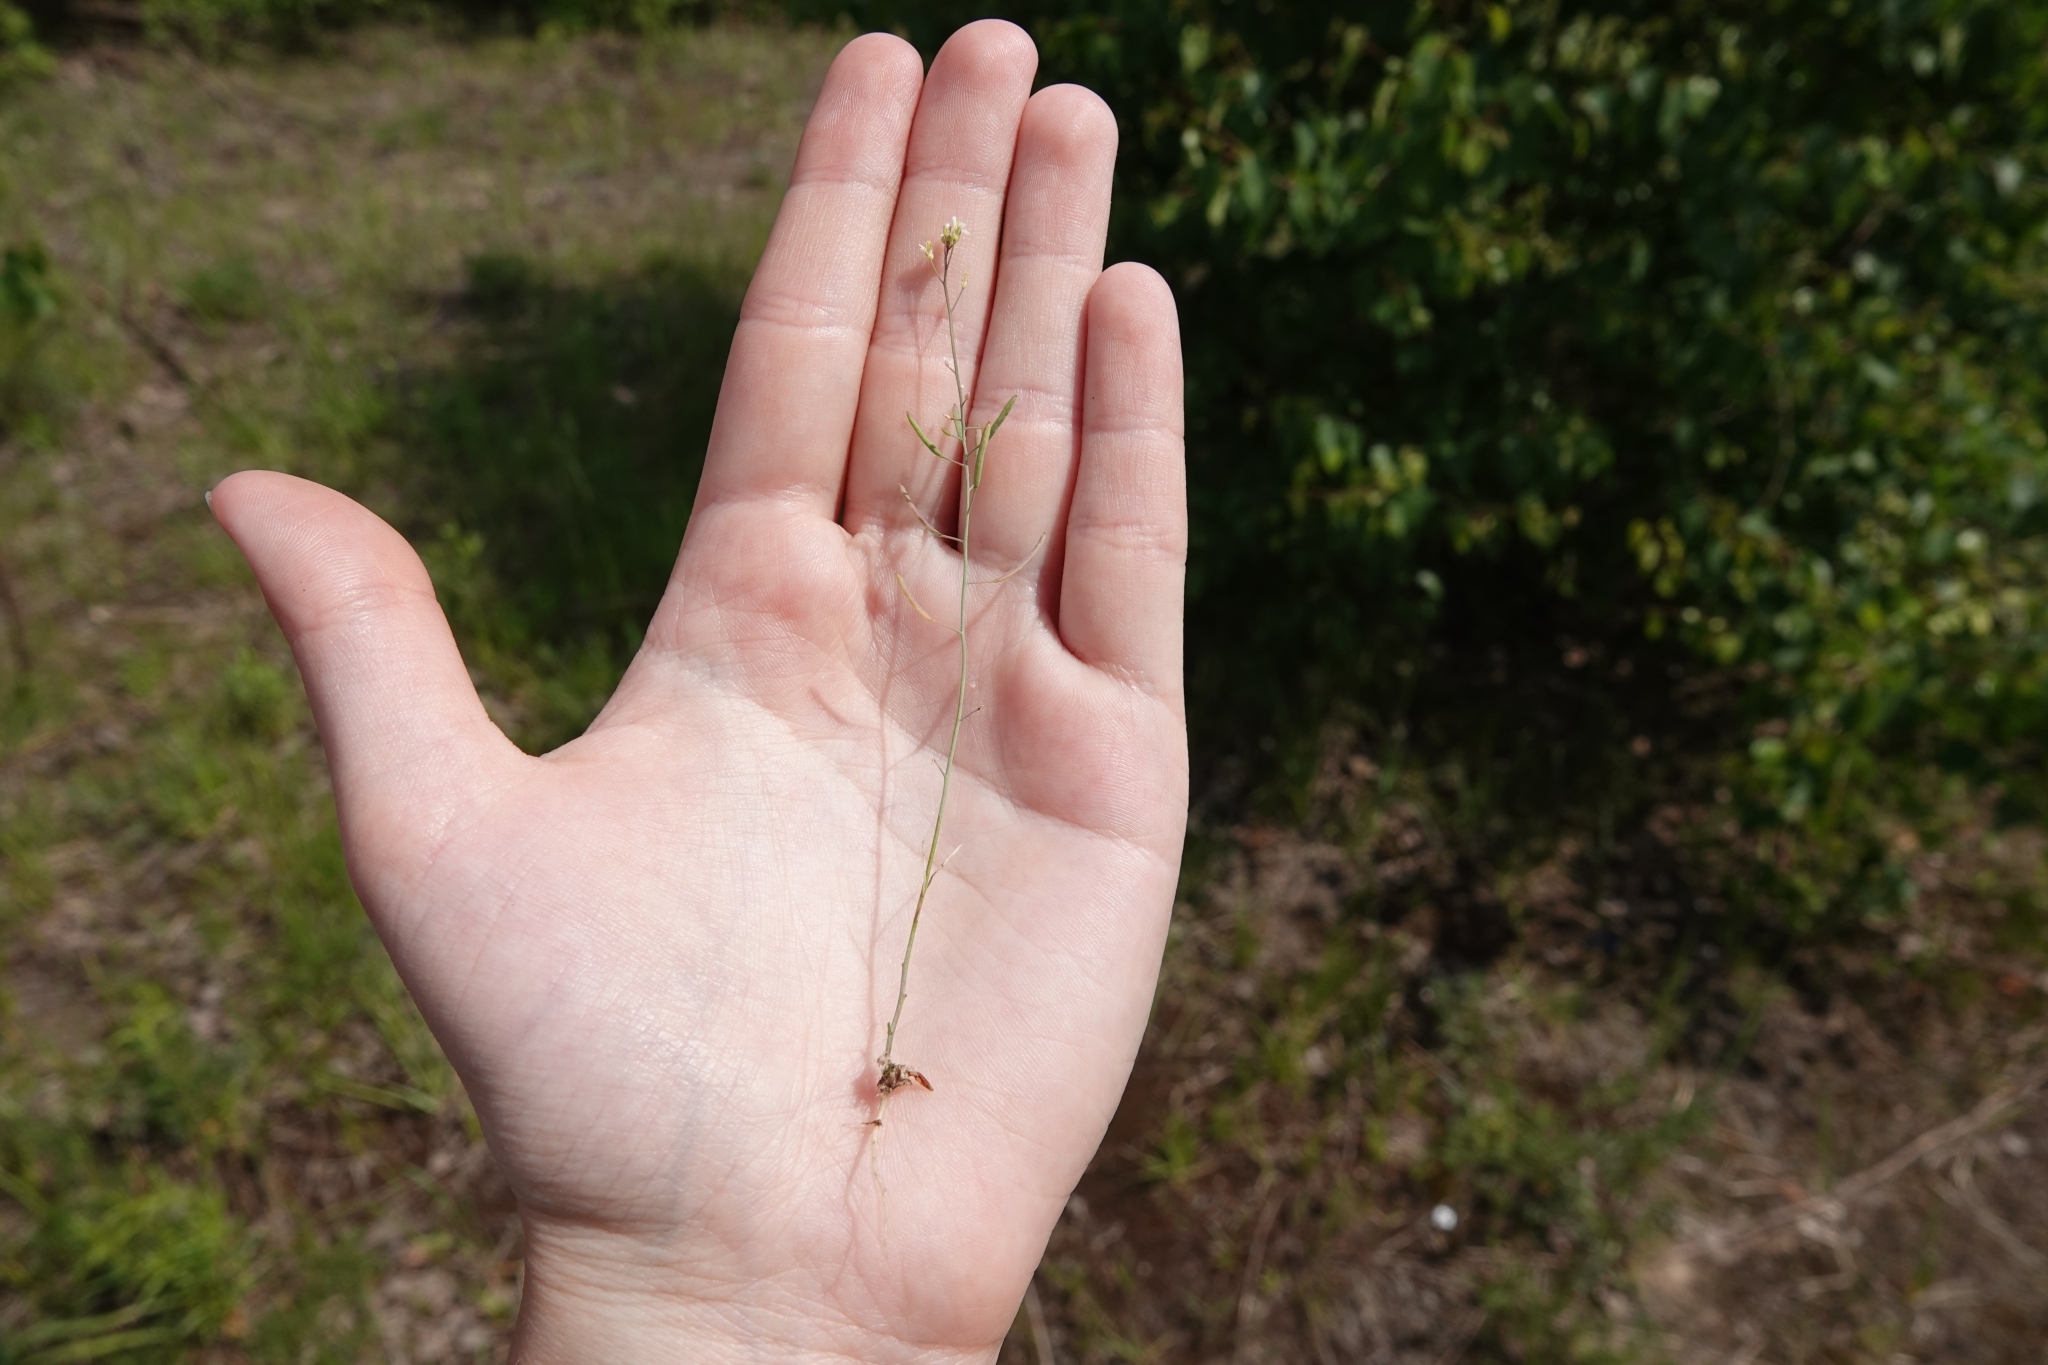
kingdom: Plantae
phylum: Tracheophyta
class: Magnoliopsida
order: Brassicales
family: Brassicaceae
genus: Arabidopsis
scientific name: Arabidopsis thaliana
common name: Thale cress
